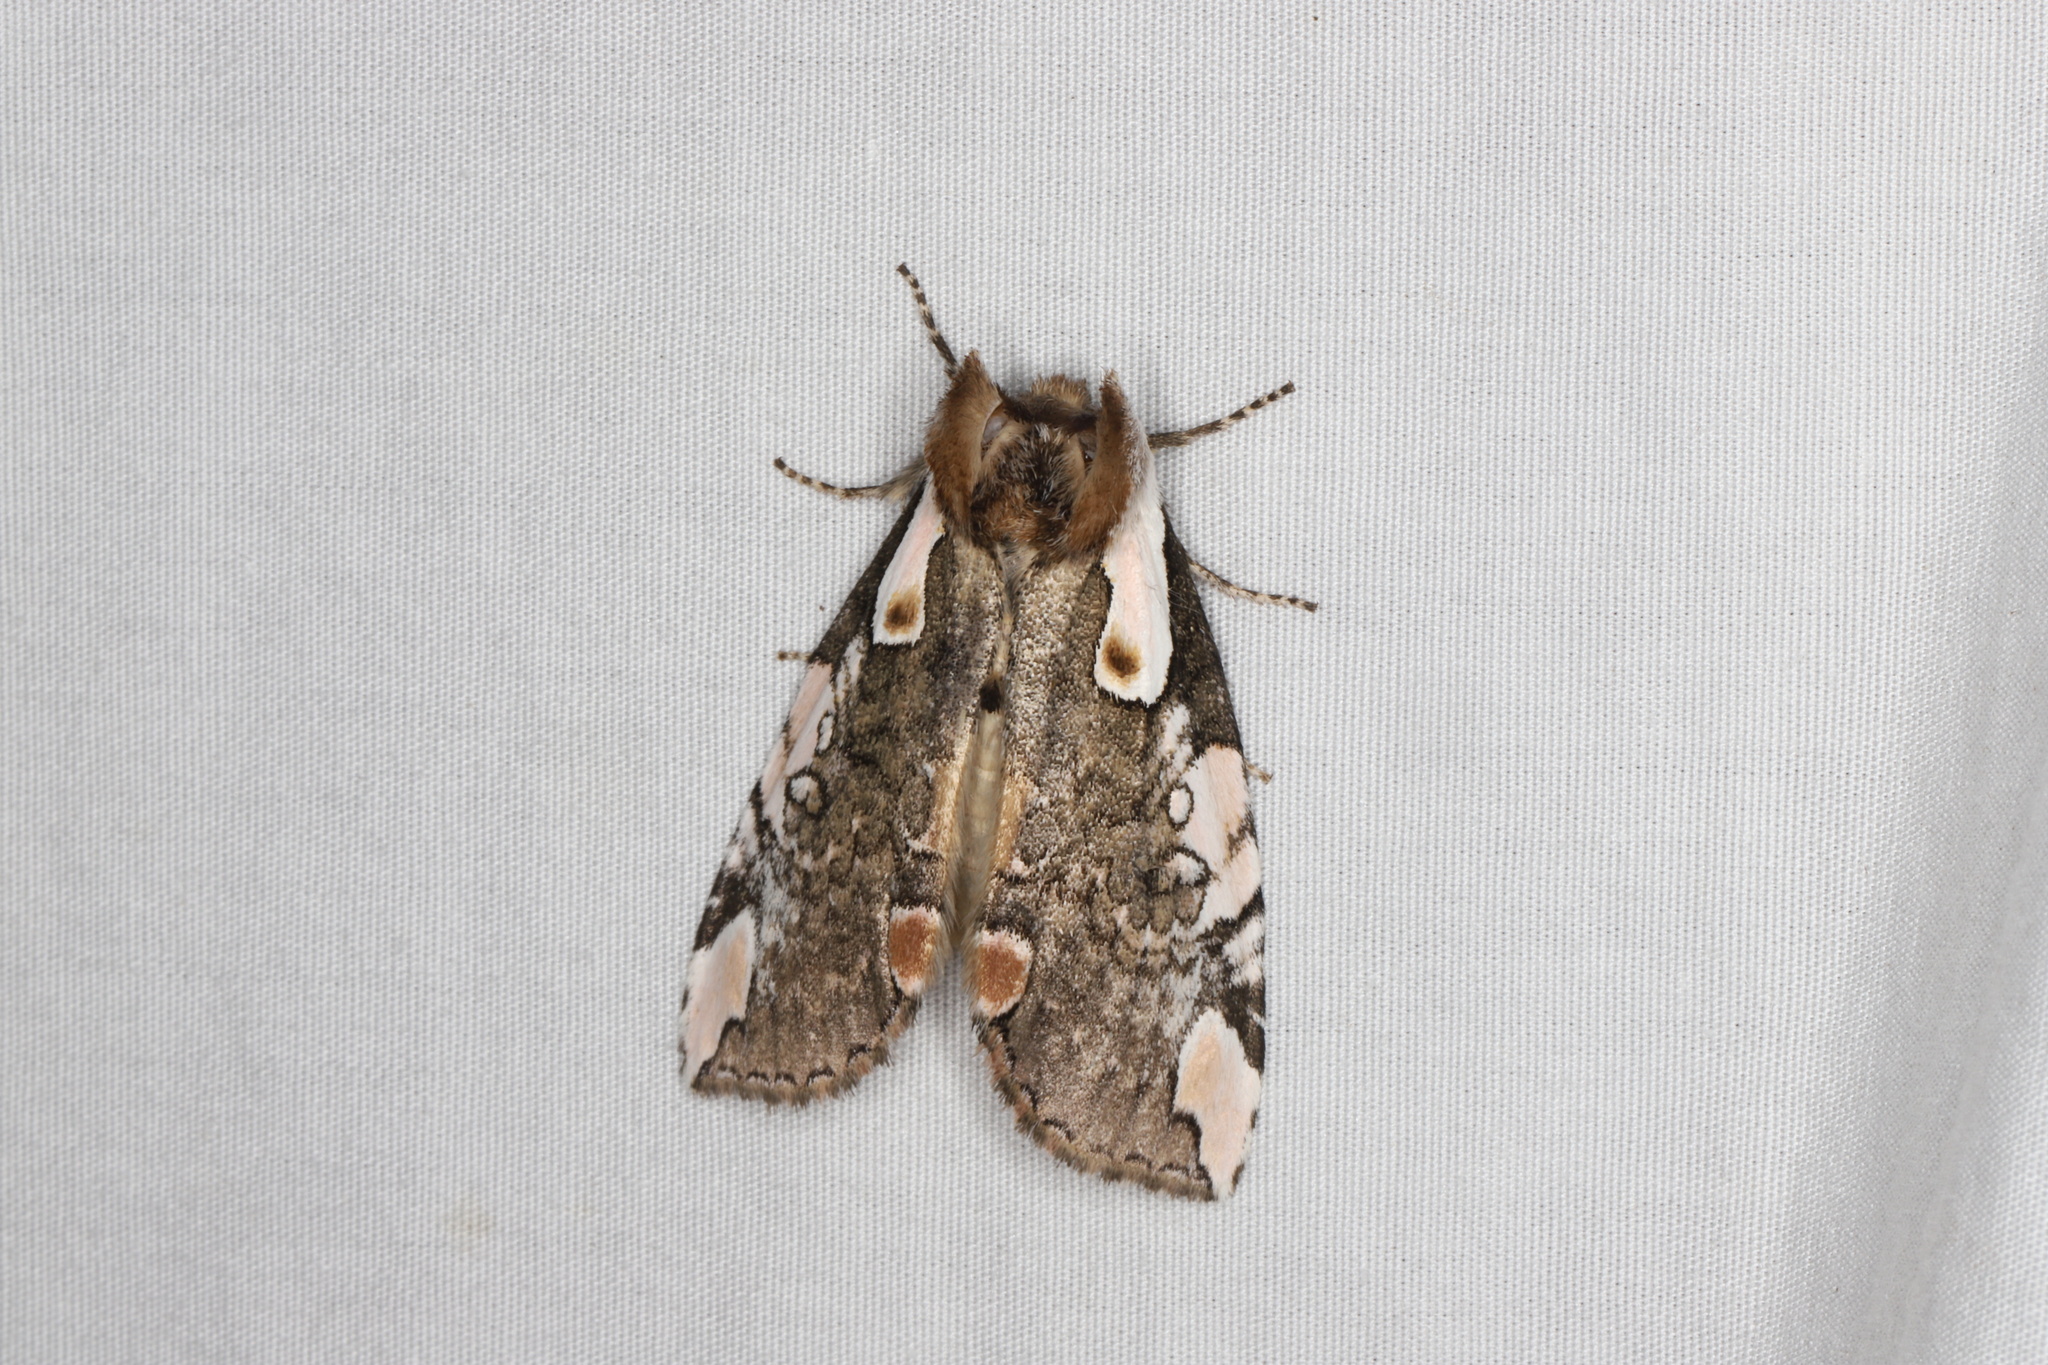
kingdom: Animalia
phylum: Arthropoda
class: Insecta
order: Lepidoptera
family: Drepanidae
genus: Euthyatira
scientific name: Euthyatira pudens
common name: Dogwood thyatirid moth
